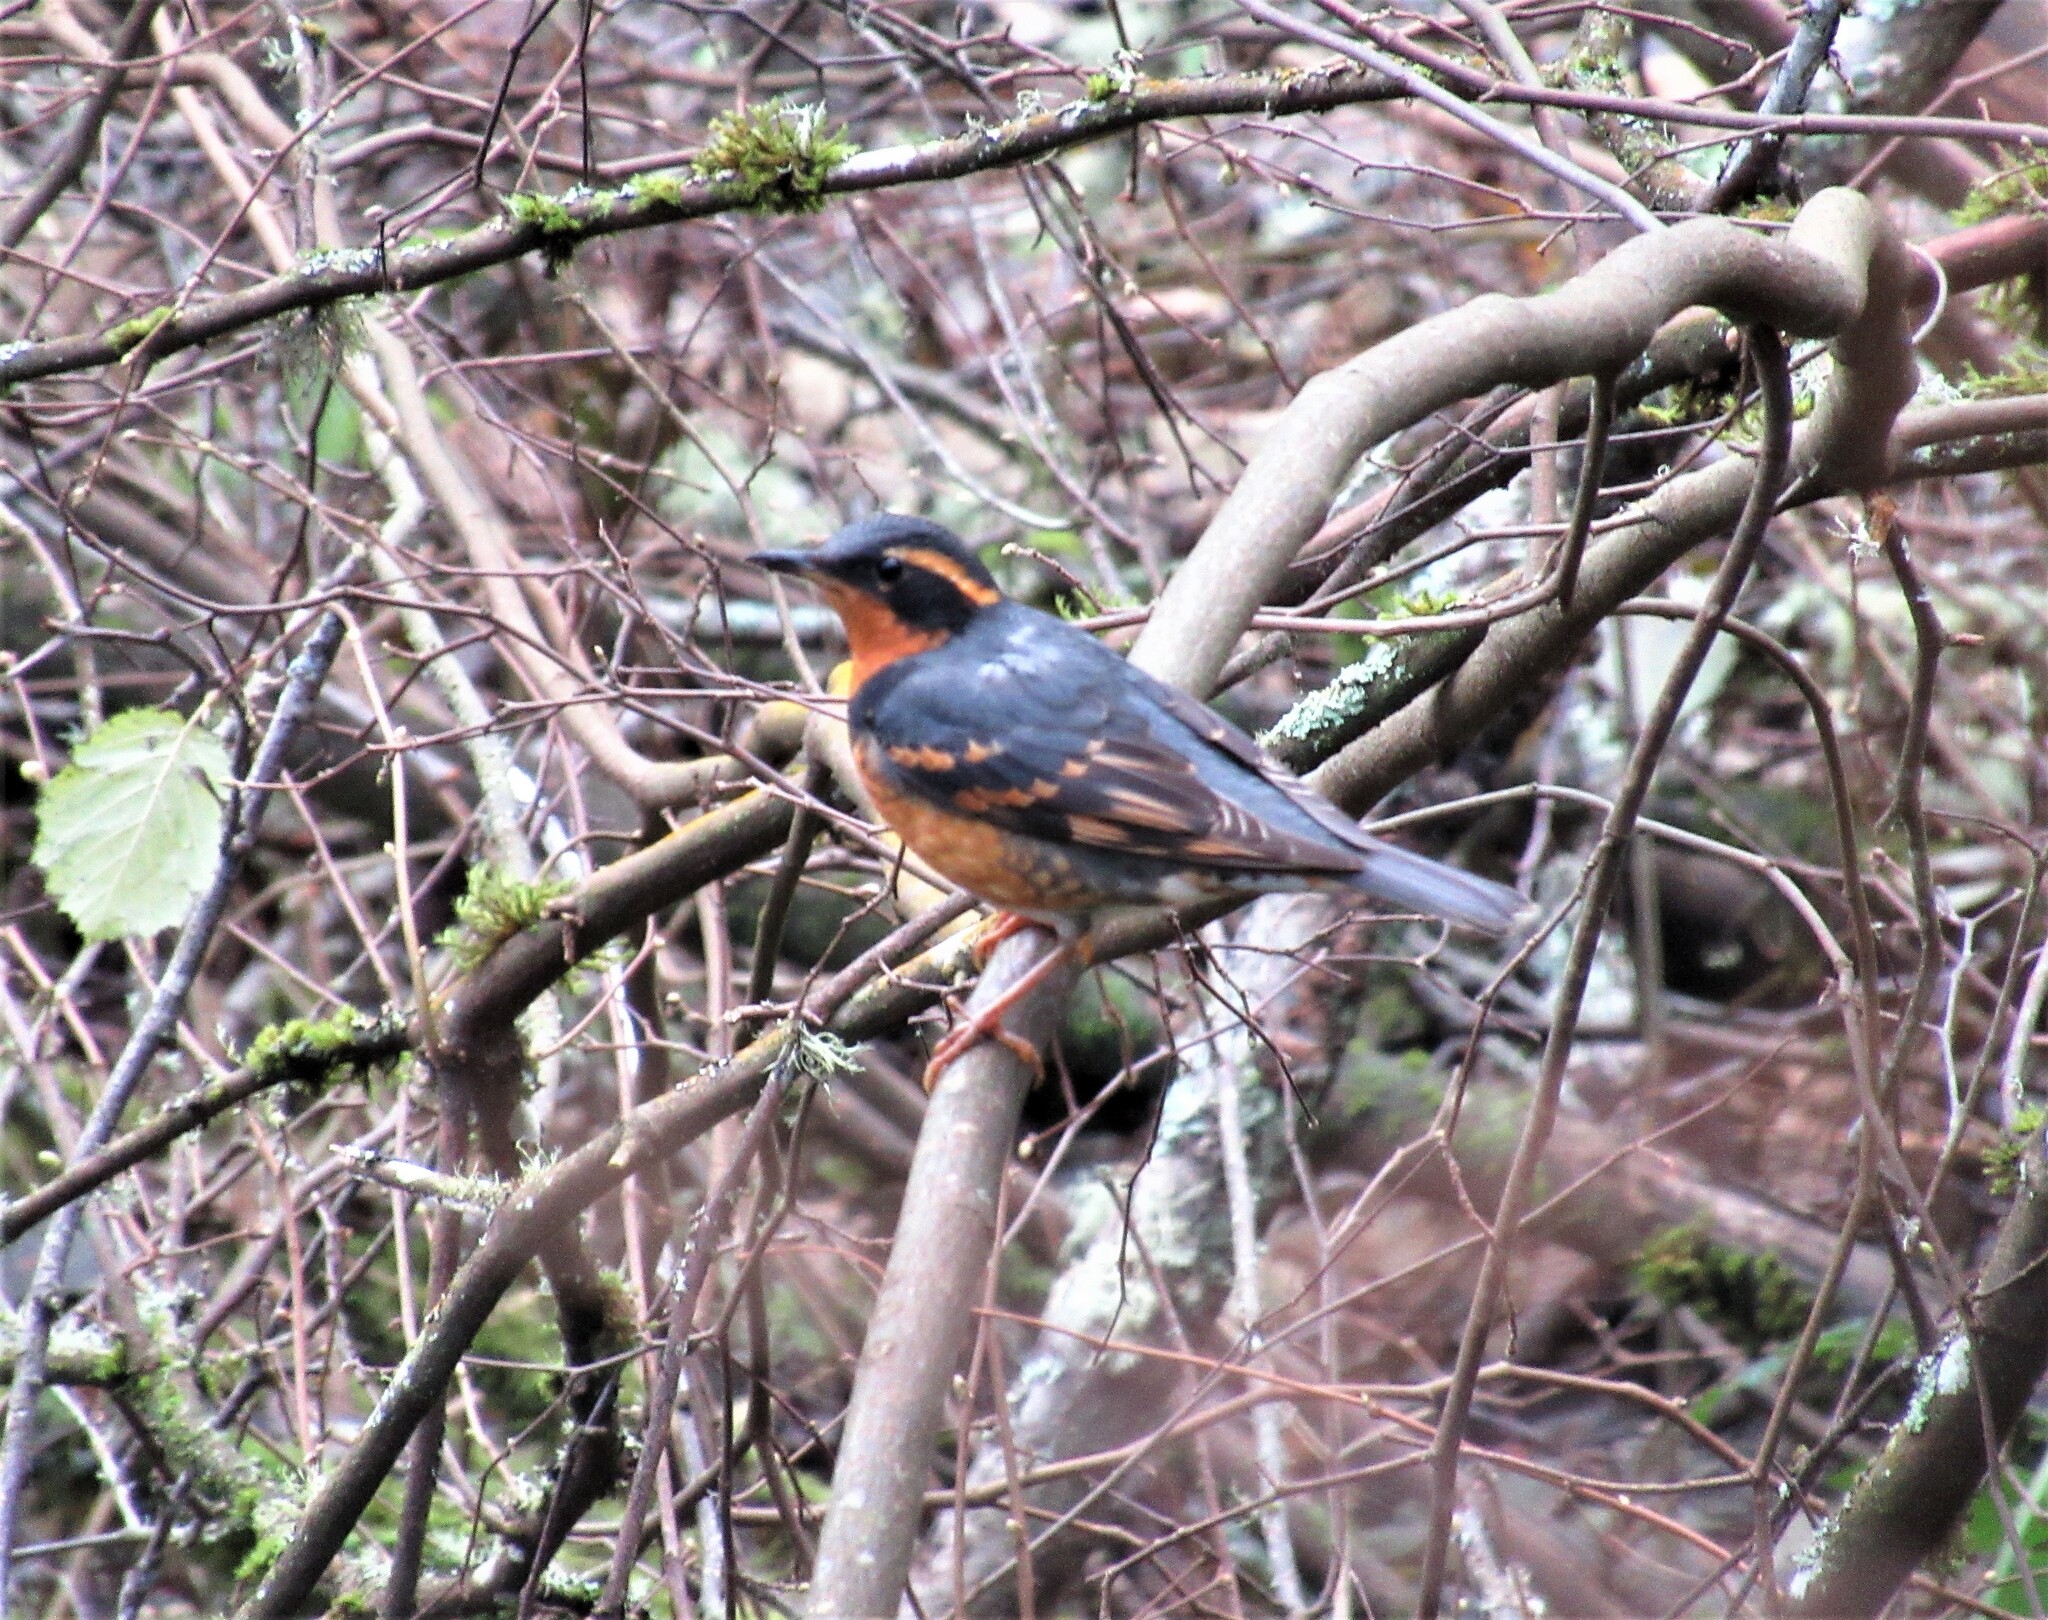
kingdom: Animalia
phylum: Chordata
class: Aves
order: Passeriformes
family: Turdidae
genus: Ixoreus
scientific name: Ixoreus naevius
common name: Varied thrush
